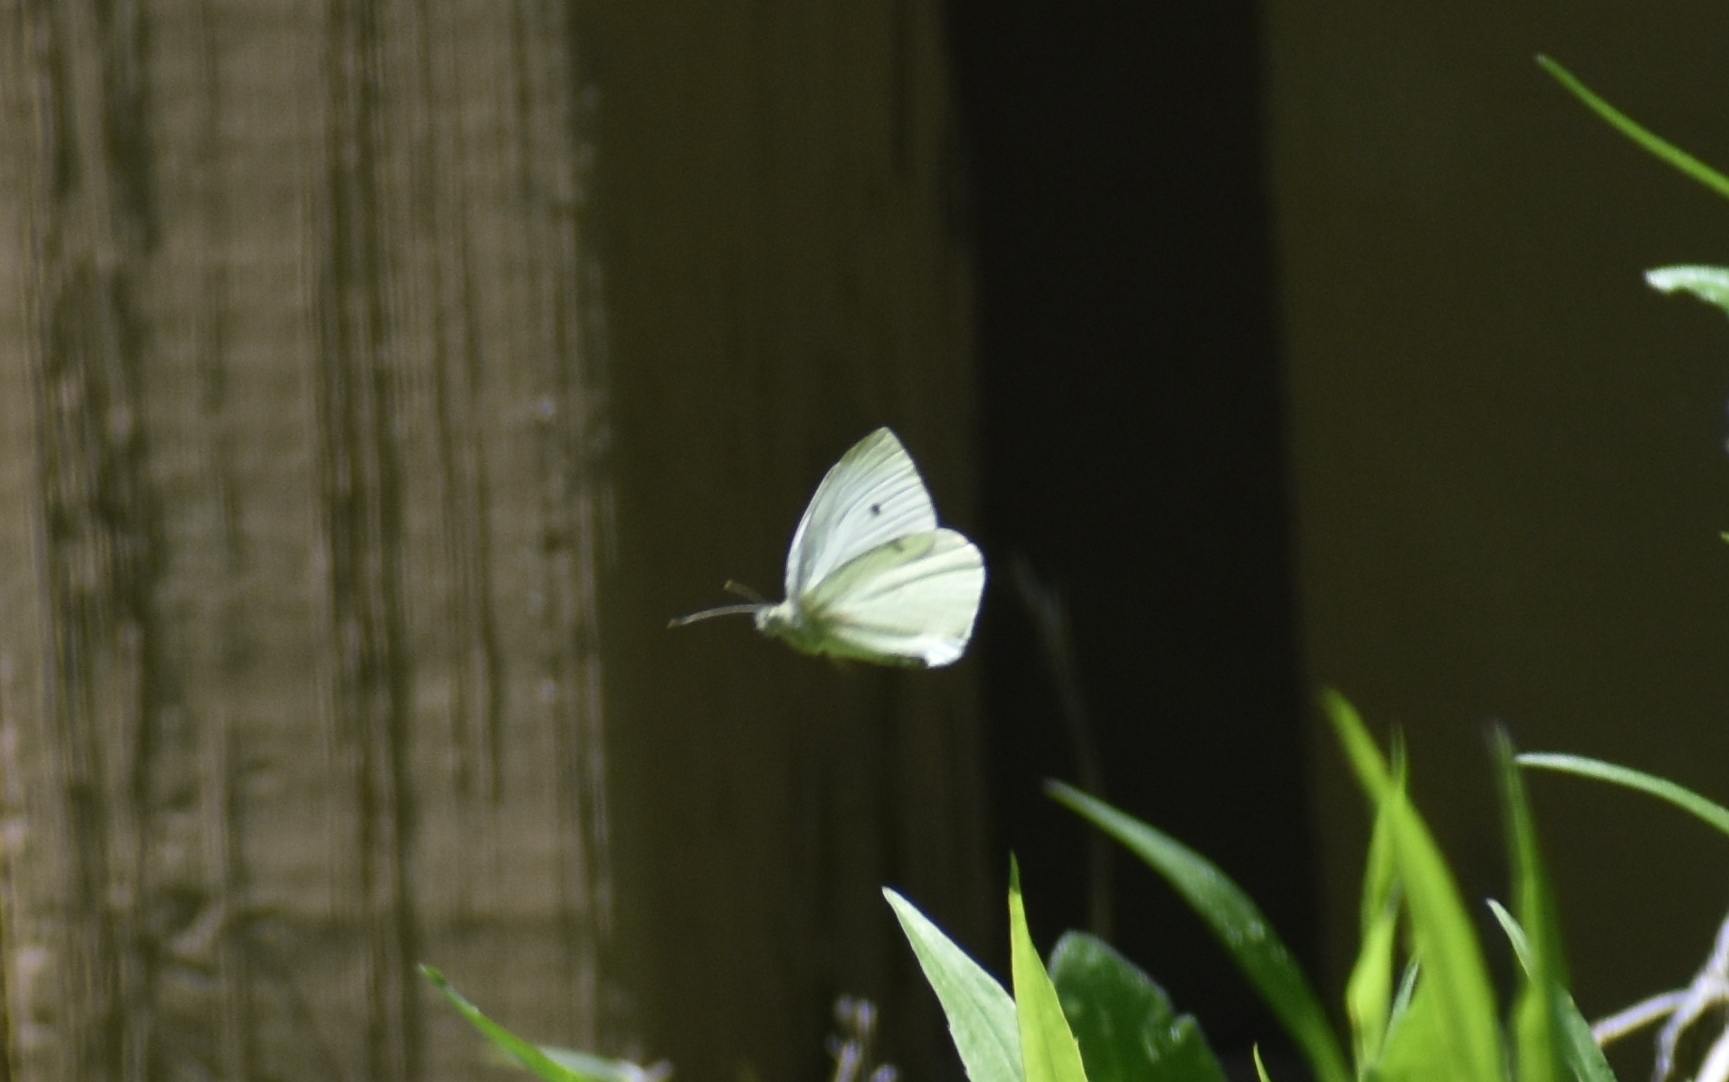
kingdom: Animalia
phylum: Arthropoda
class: Insecta
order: Lepidoptera
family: Pieridae
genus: Pieris
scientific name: Pieris rapae
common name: Small white
